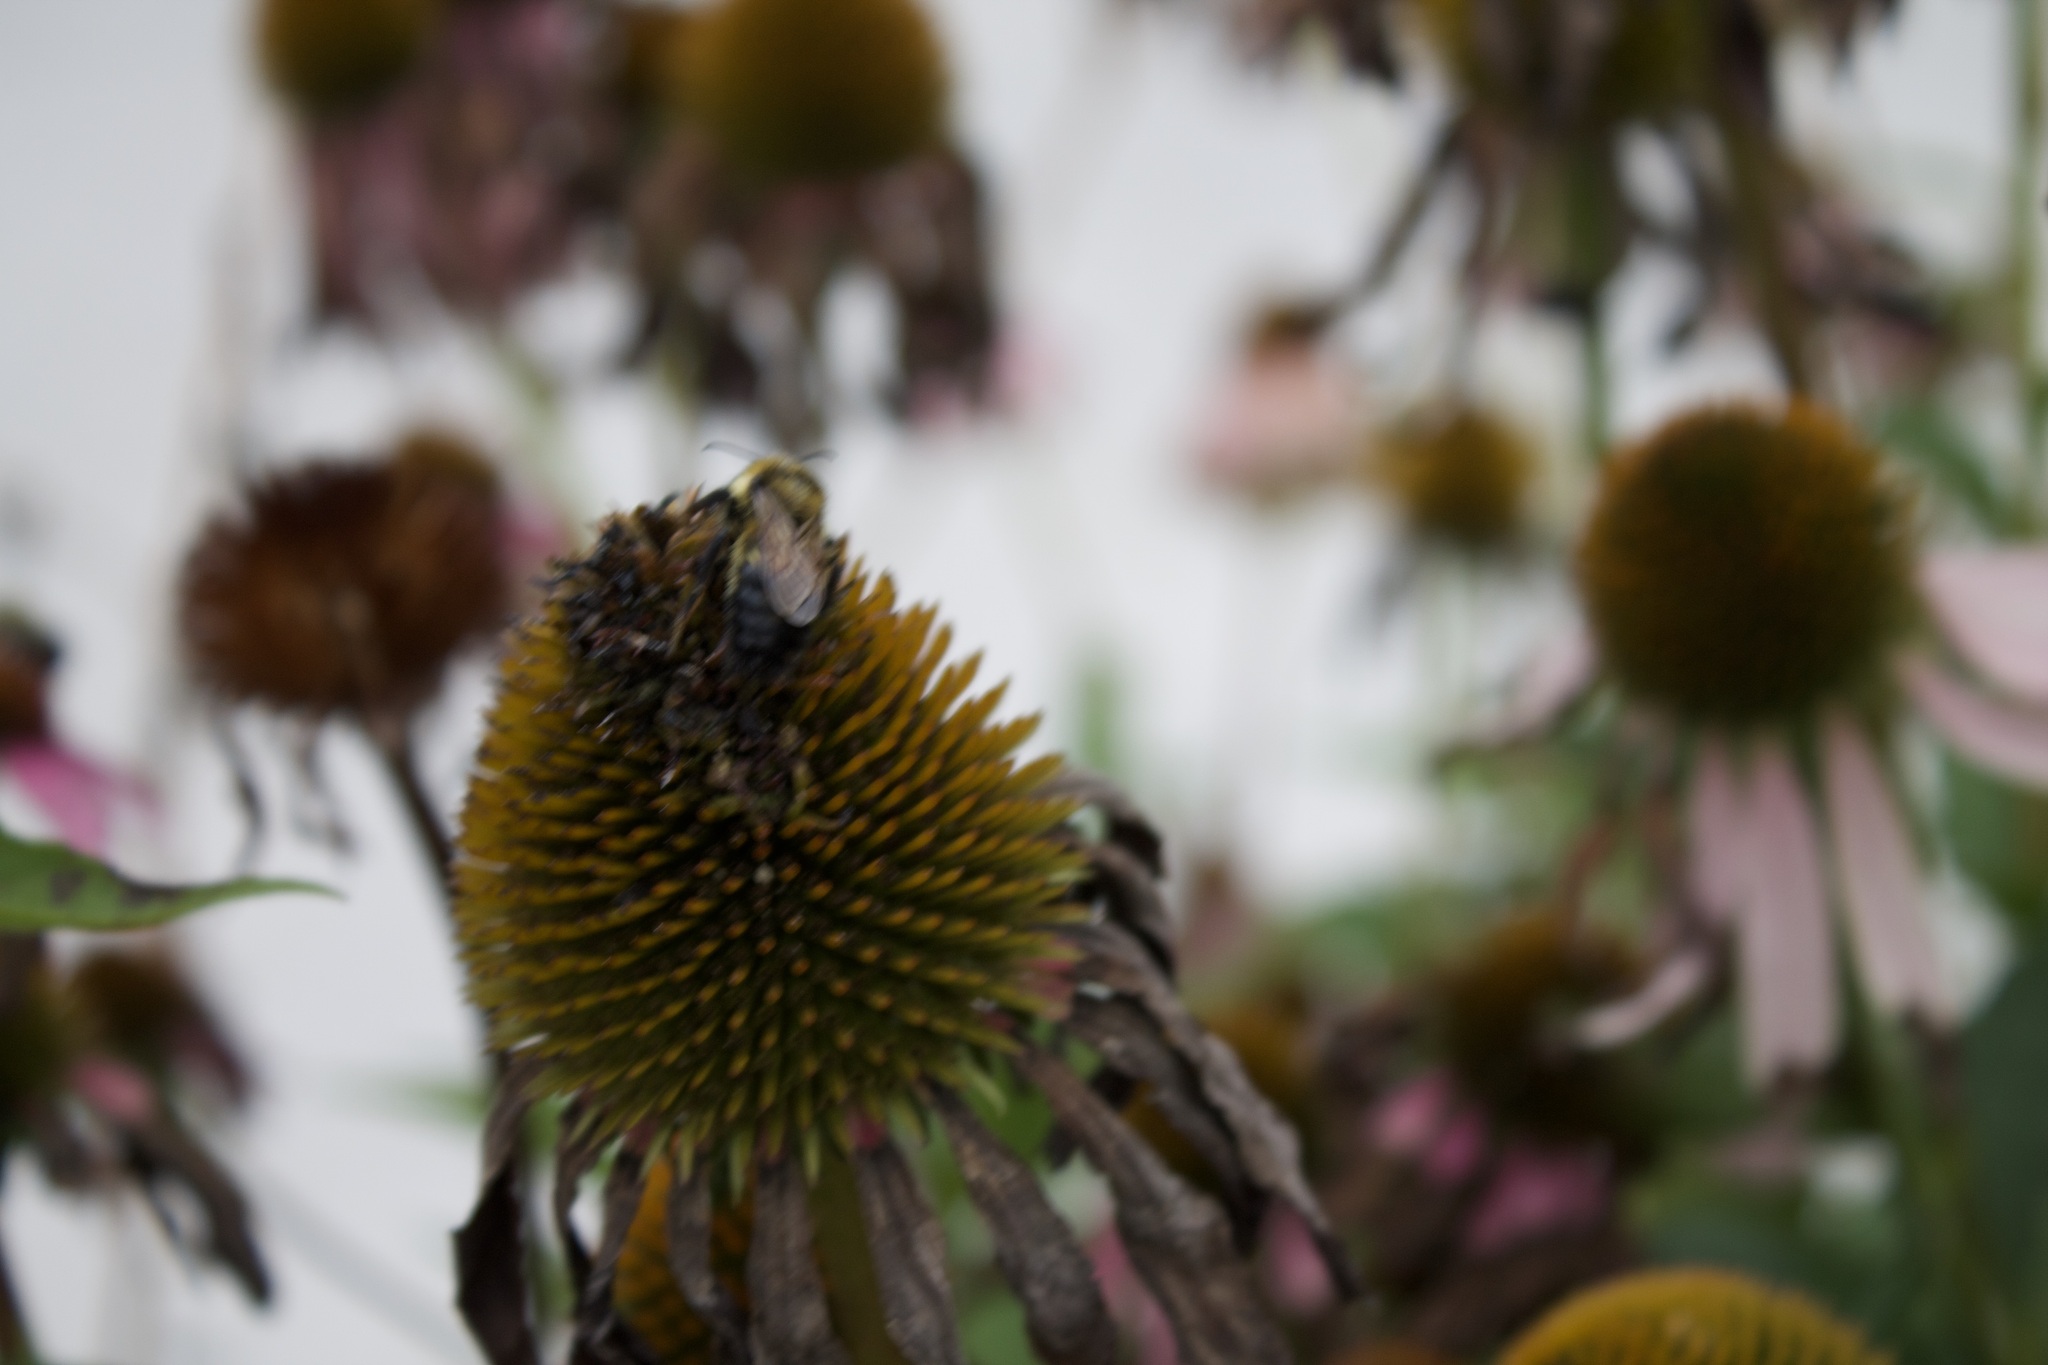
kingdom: Animalia
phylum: Arthropoda
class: Insecta
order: Hymenoptera
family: Apidae
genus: Bombus
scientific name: Bombus rufocinctus
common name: Red-belted bumble bee
